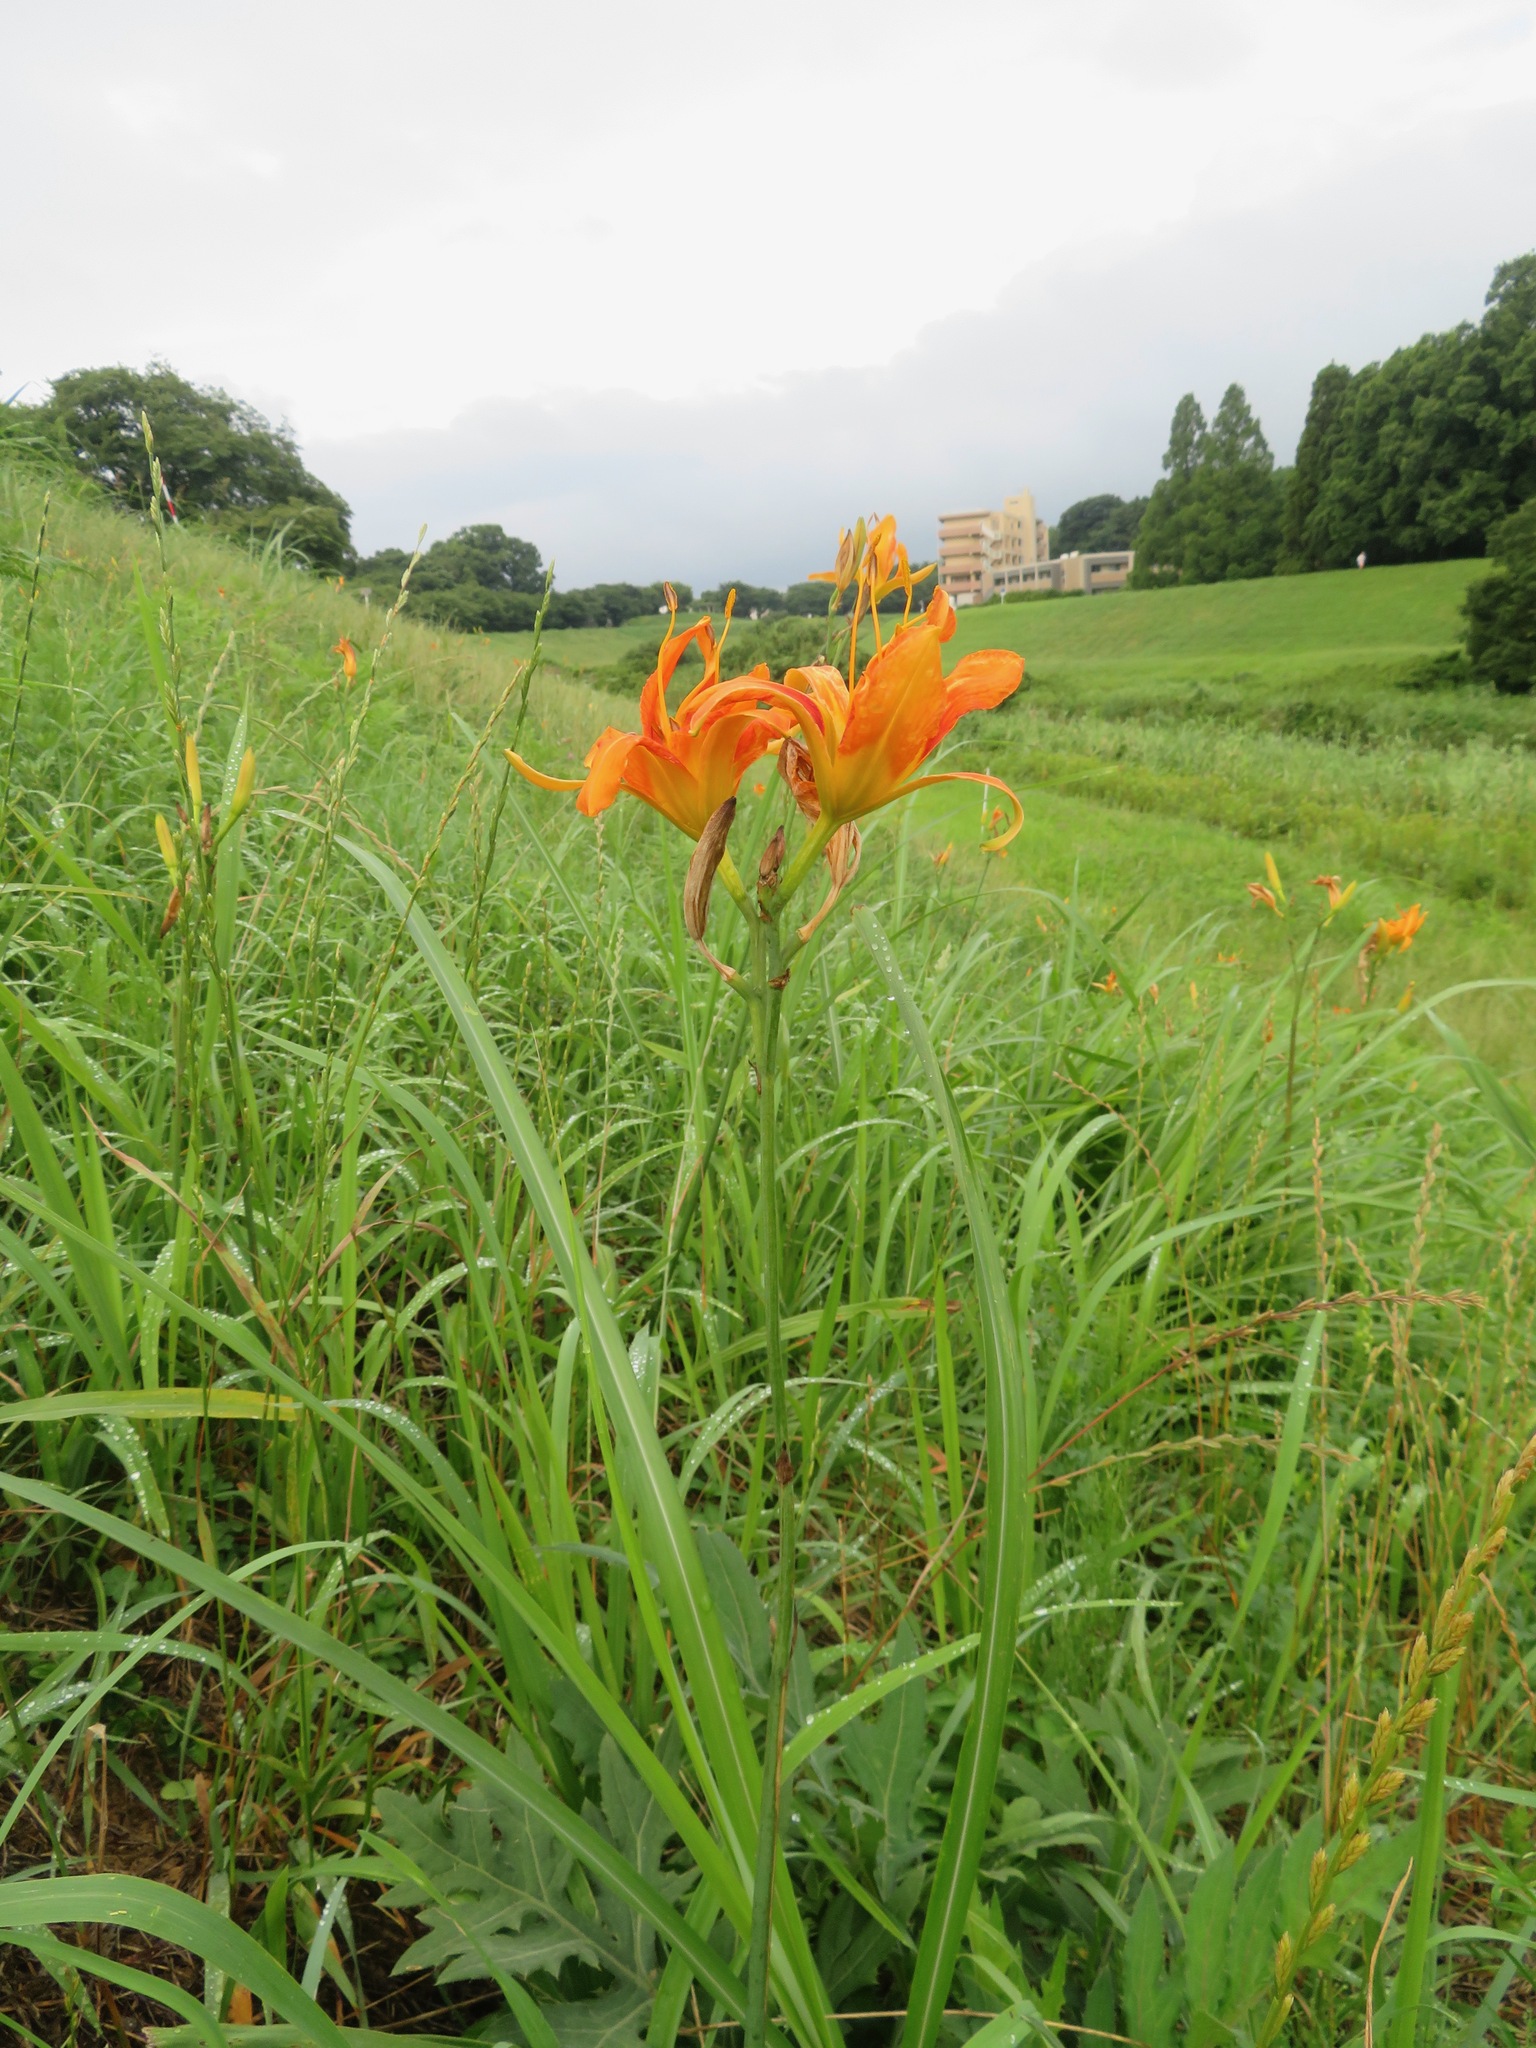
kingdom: Plantae
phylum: Tracheophyta
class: Liliopsida
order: Asparagales
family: Asphodelaceae
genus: Hemerocallis
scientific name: Hemerocallis fulva
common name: Orange day-lily
